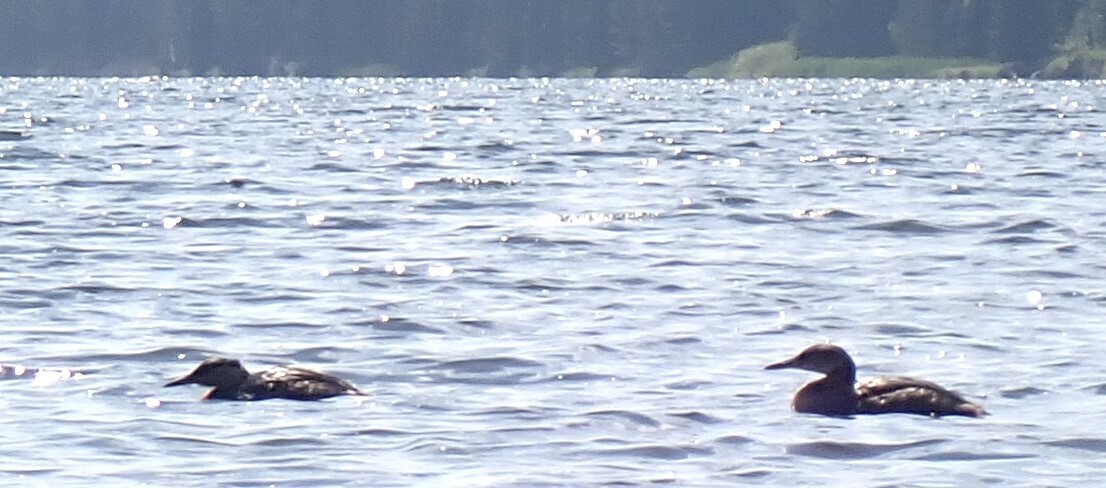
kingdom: Animalia
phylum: Chordata
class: Aves
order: Podicipediformes
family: Podicipedidae
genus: Podiceps
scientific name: Podiceps grisegena
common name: Red-necked grebe
